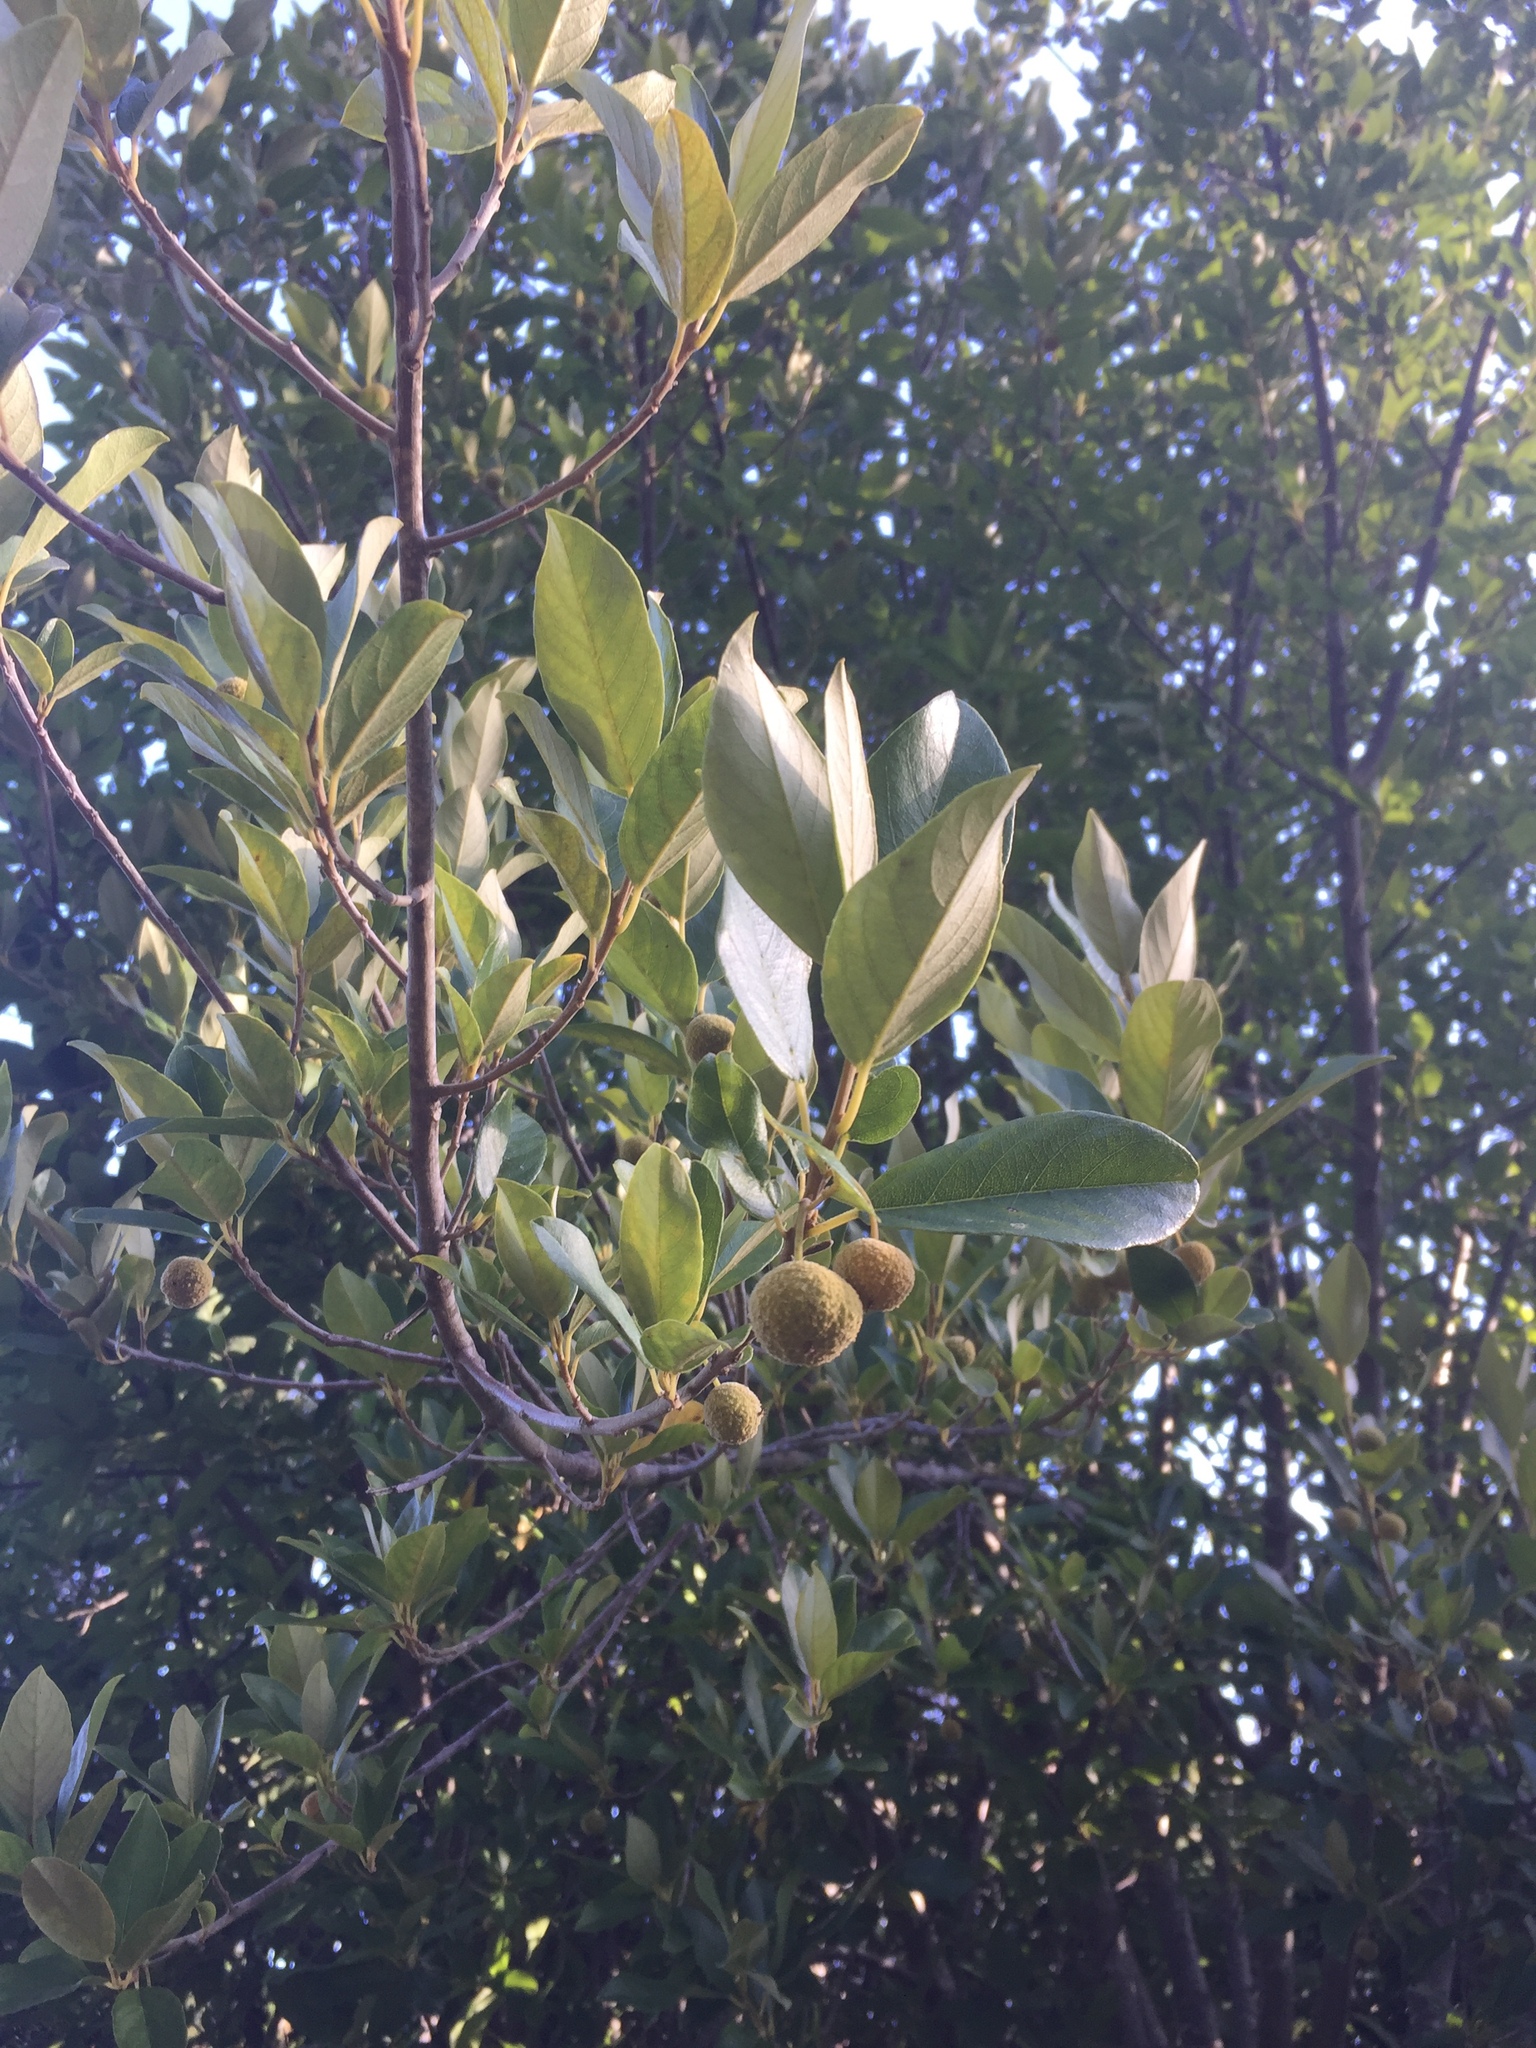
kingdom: Plantae
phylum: Tracheophyta
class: Magnoliopsida
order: Malpighiales
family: Achariaceae
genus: Kiggelaria
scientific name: Kiggelaria africana
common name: Wild peach
